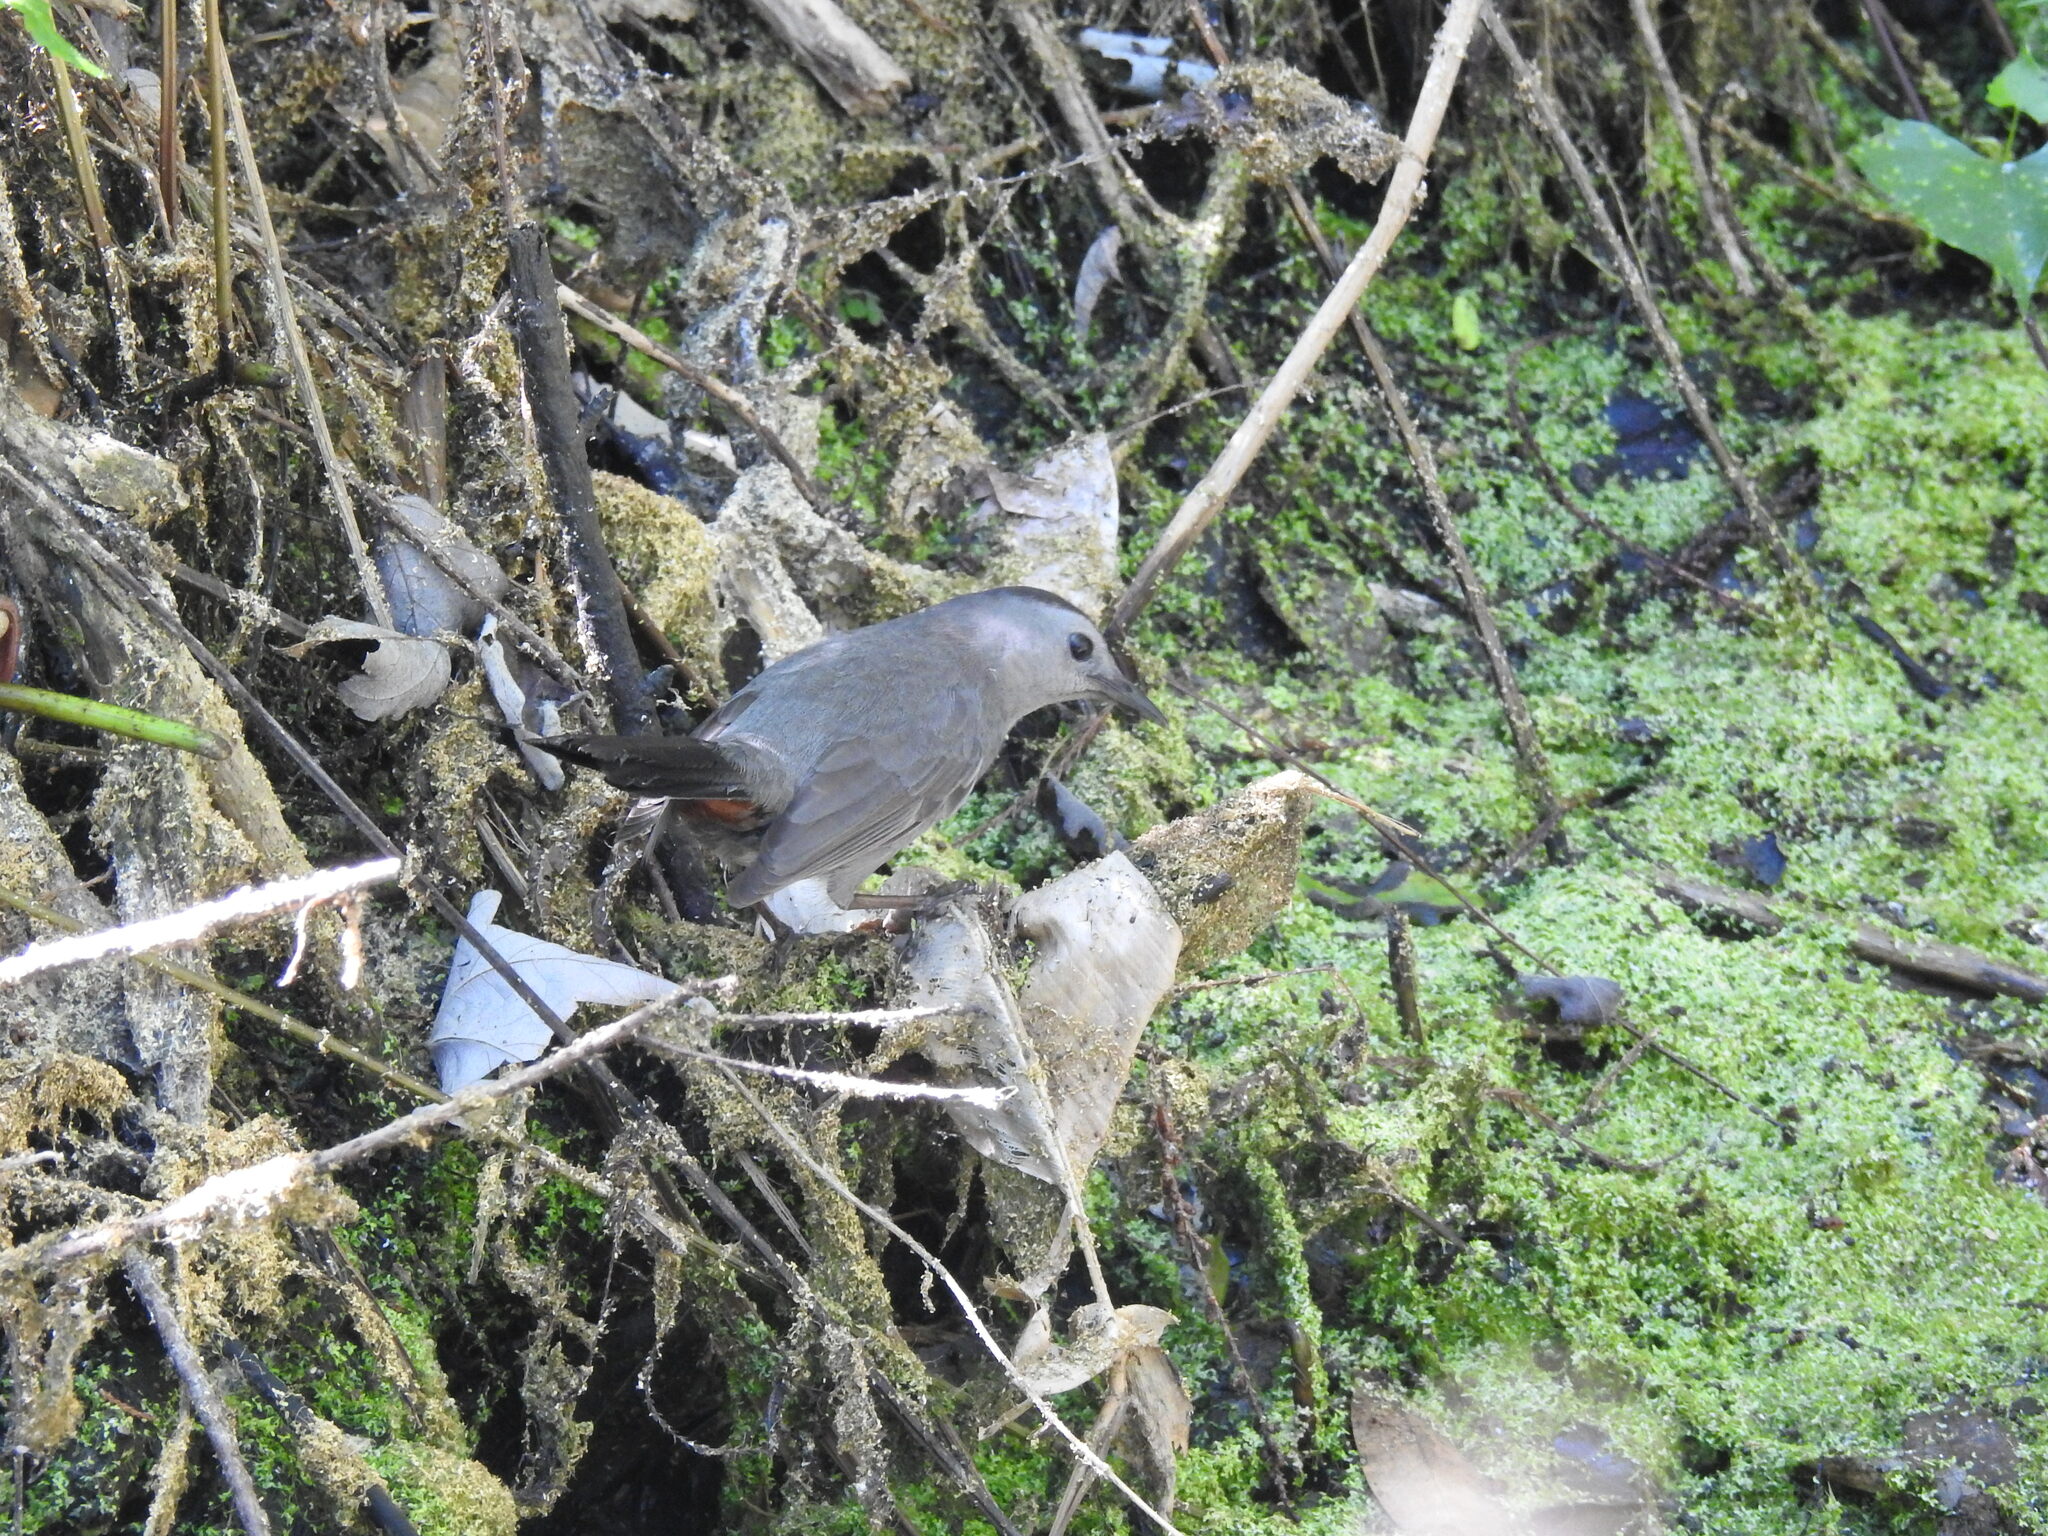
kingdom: Animalia
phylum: Chordata
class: Aves
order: Passeriformes
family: Mimidae
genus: Dumetella
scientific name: Dumetella carolinensis
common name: Gray catbird
